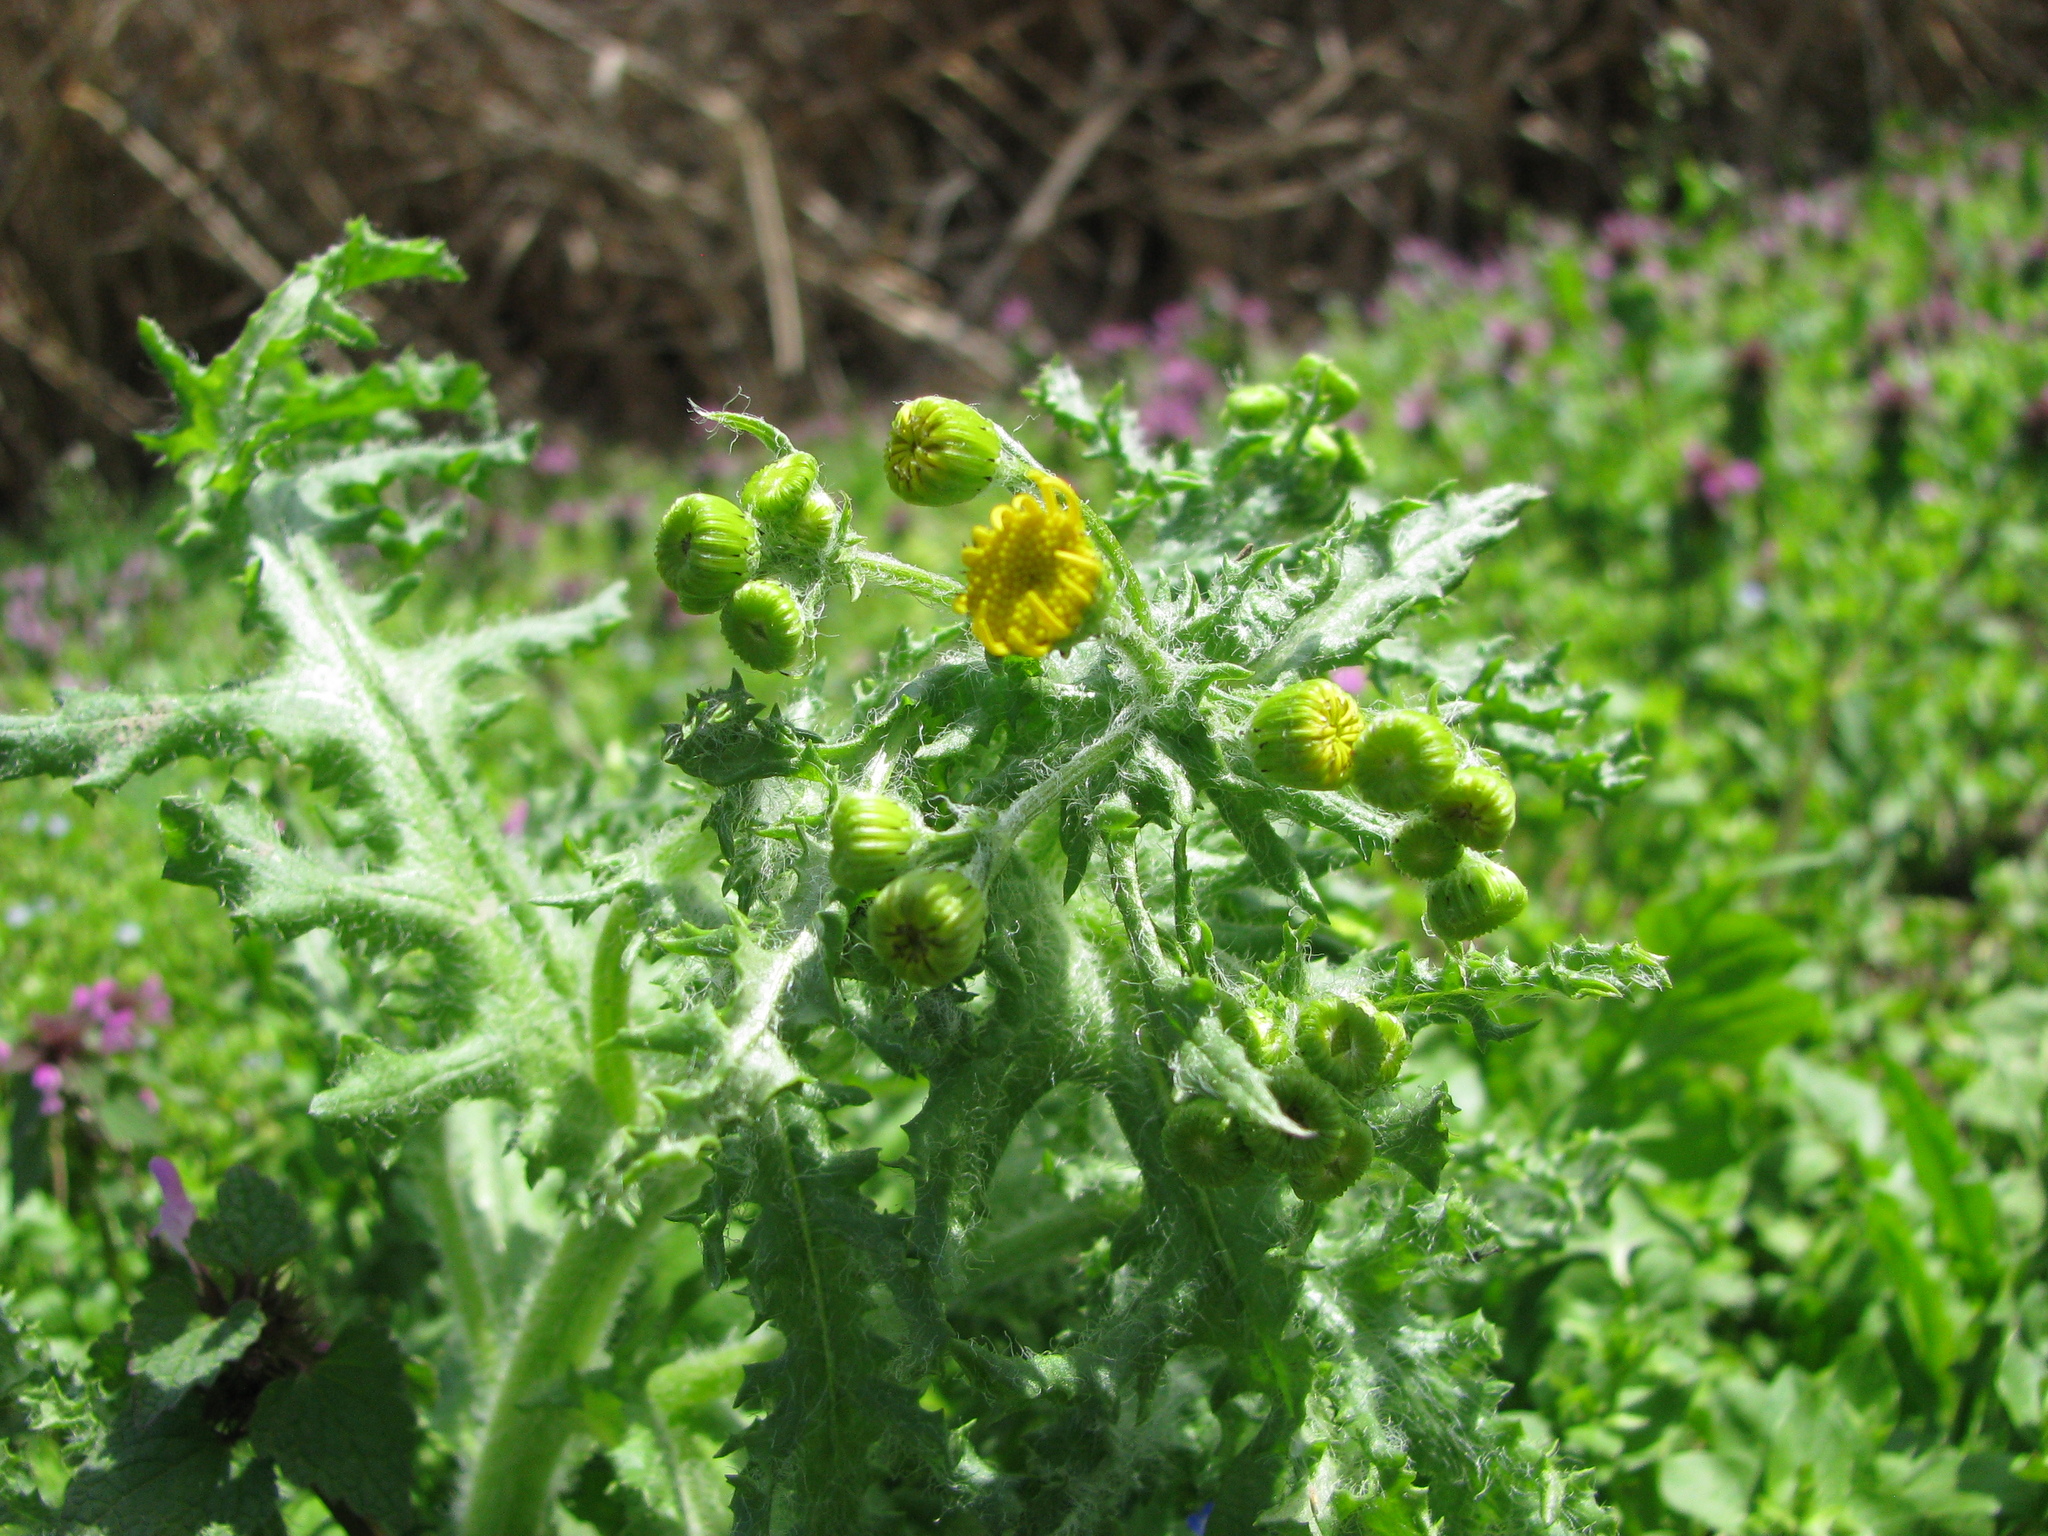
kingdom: Plantae
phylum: Tracheophyta
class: Magnoliopsida
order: Asterales
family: Asteraceae
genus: Senecio
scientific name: Senecio vernalis
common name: Eastern groundsel
